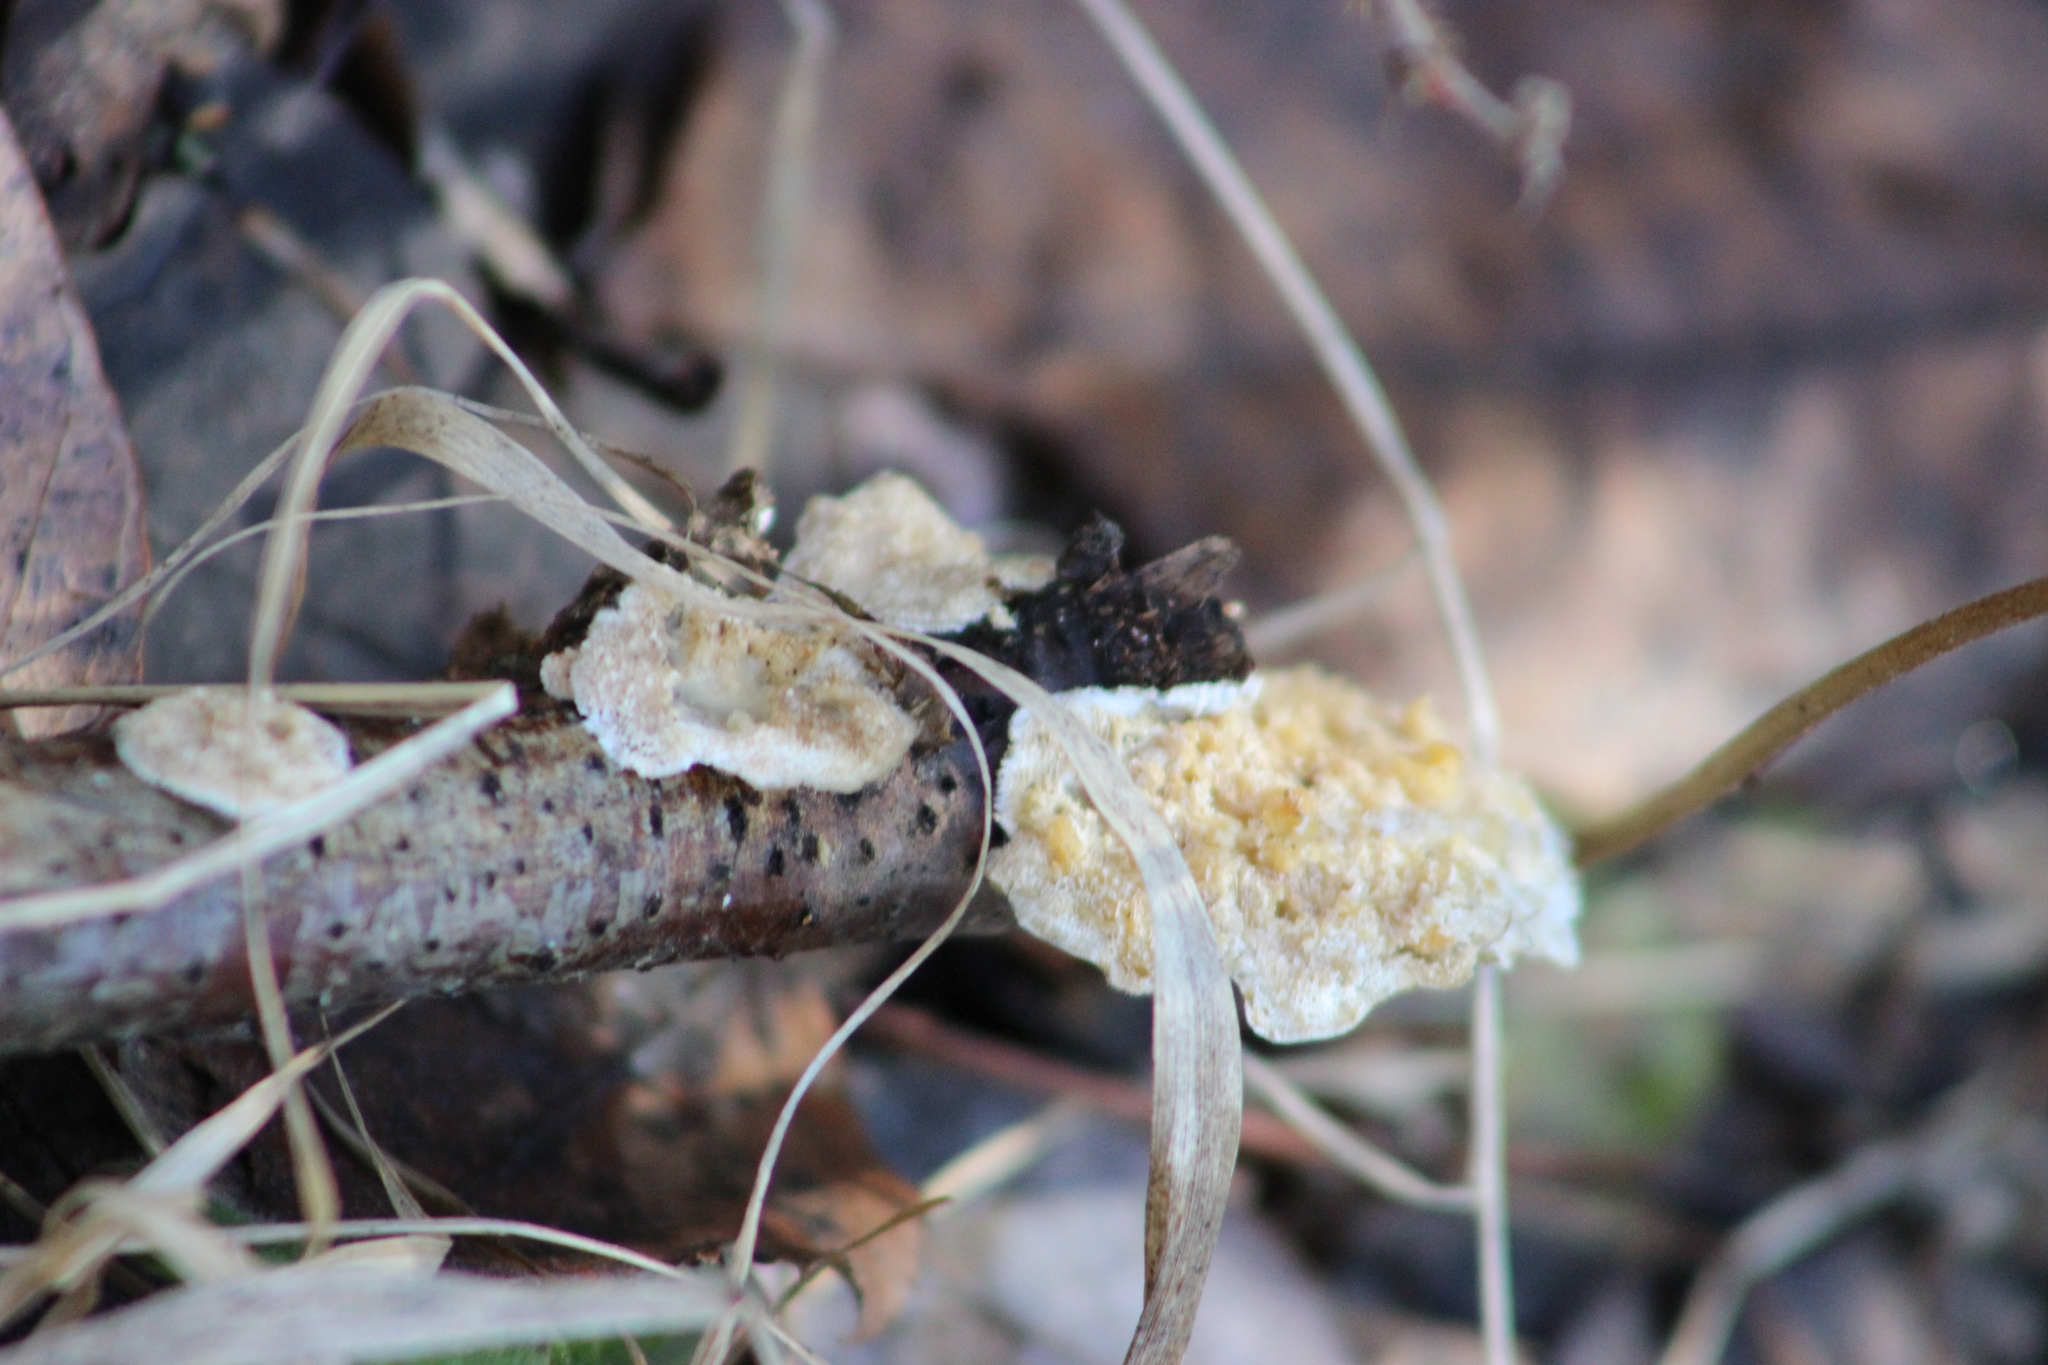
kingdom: Fungi
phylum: Basidiomycota
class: Agaricomycetes
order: Polyporales
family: Polyporaceae
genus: Trametes
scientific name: Trametes versicolor
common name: Turkeytail
